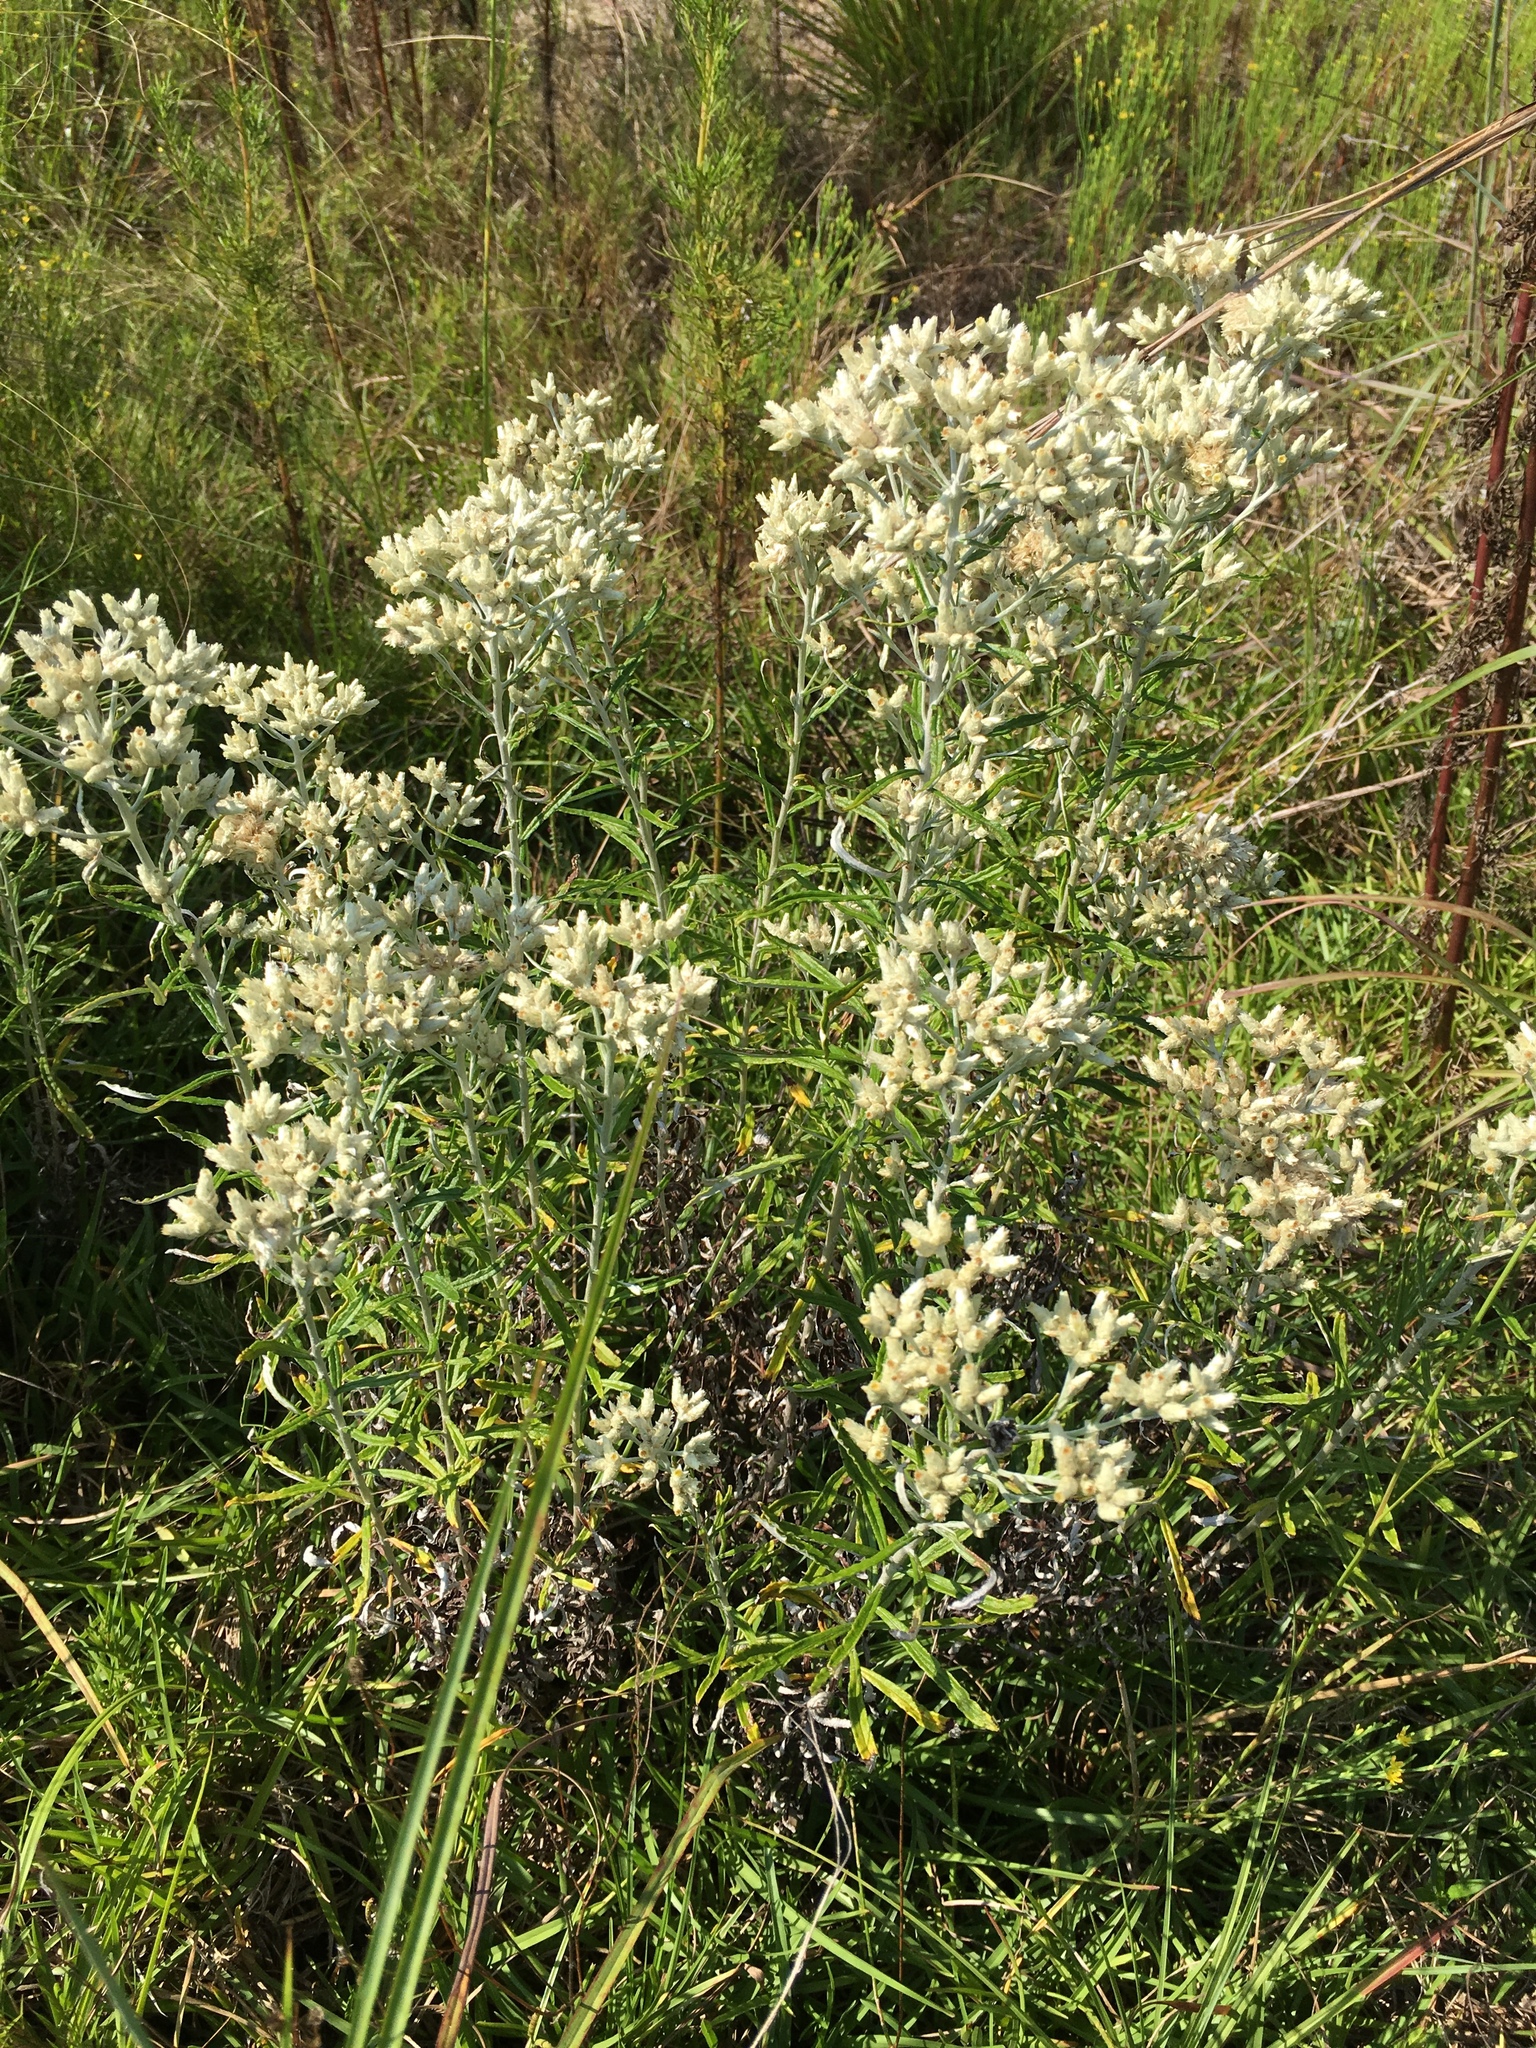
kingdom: Plantae
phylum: Tracheophyta
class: Magnoliopsida
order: Asterales
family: Asteraceae
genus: Pseudognaphalium
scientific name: Pseudognaphalium obtusifolium
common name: Eastern rabbit-tobacco
